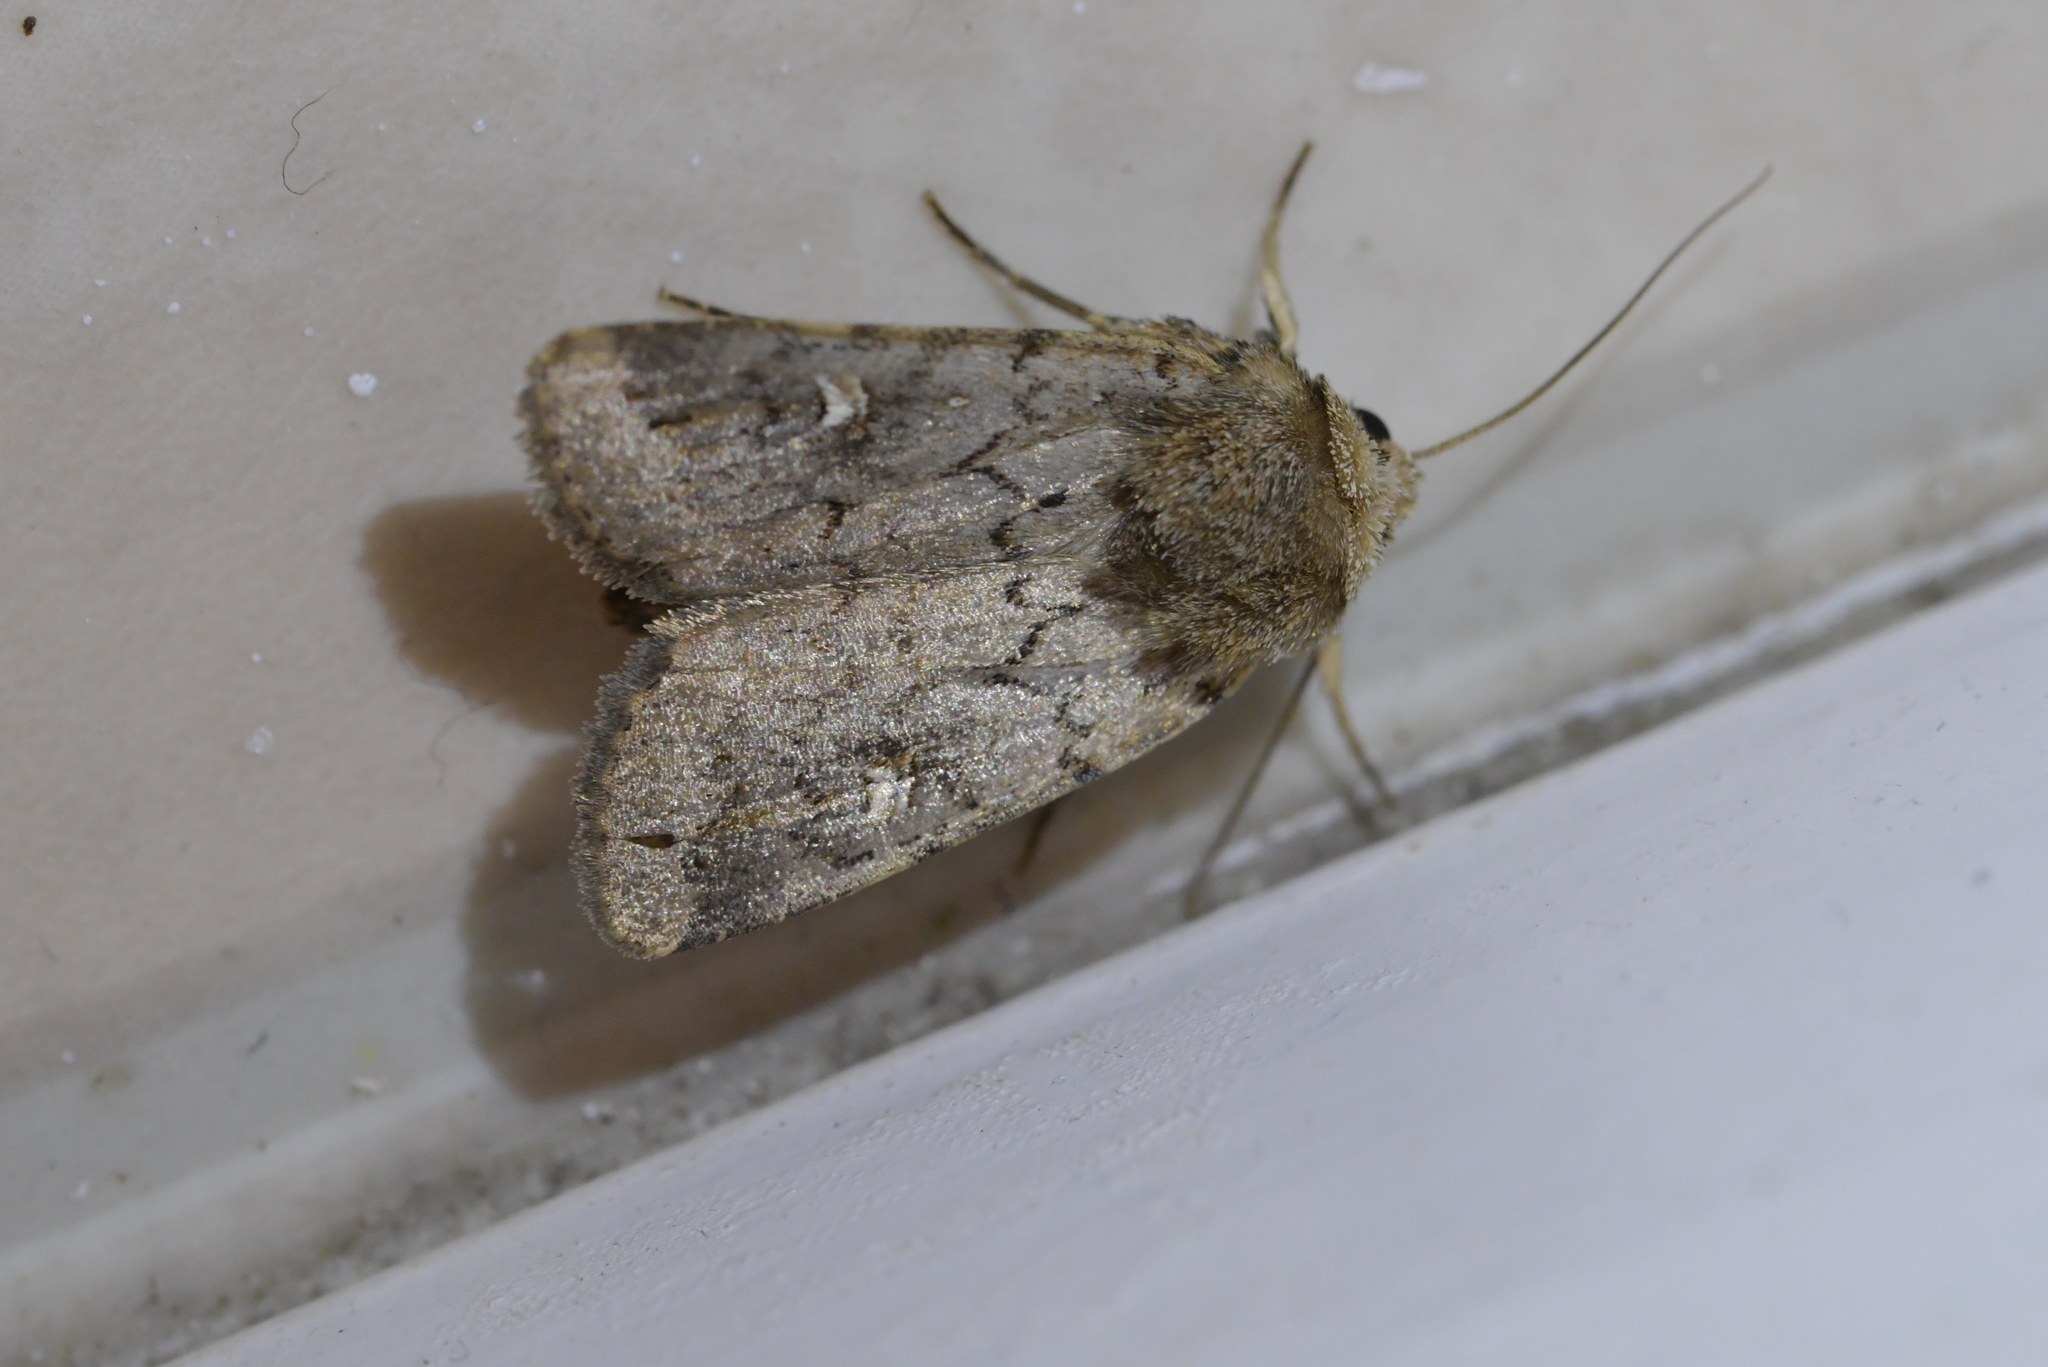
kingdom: Animalia
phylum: Arthropoda
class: Insecta
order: Lepidoptera
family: Noctuidae
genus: Proteuxoa
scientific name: Proteuxoa tetronycha
